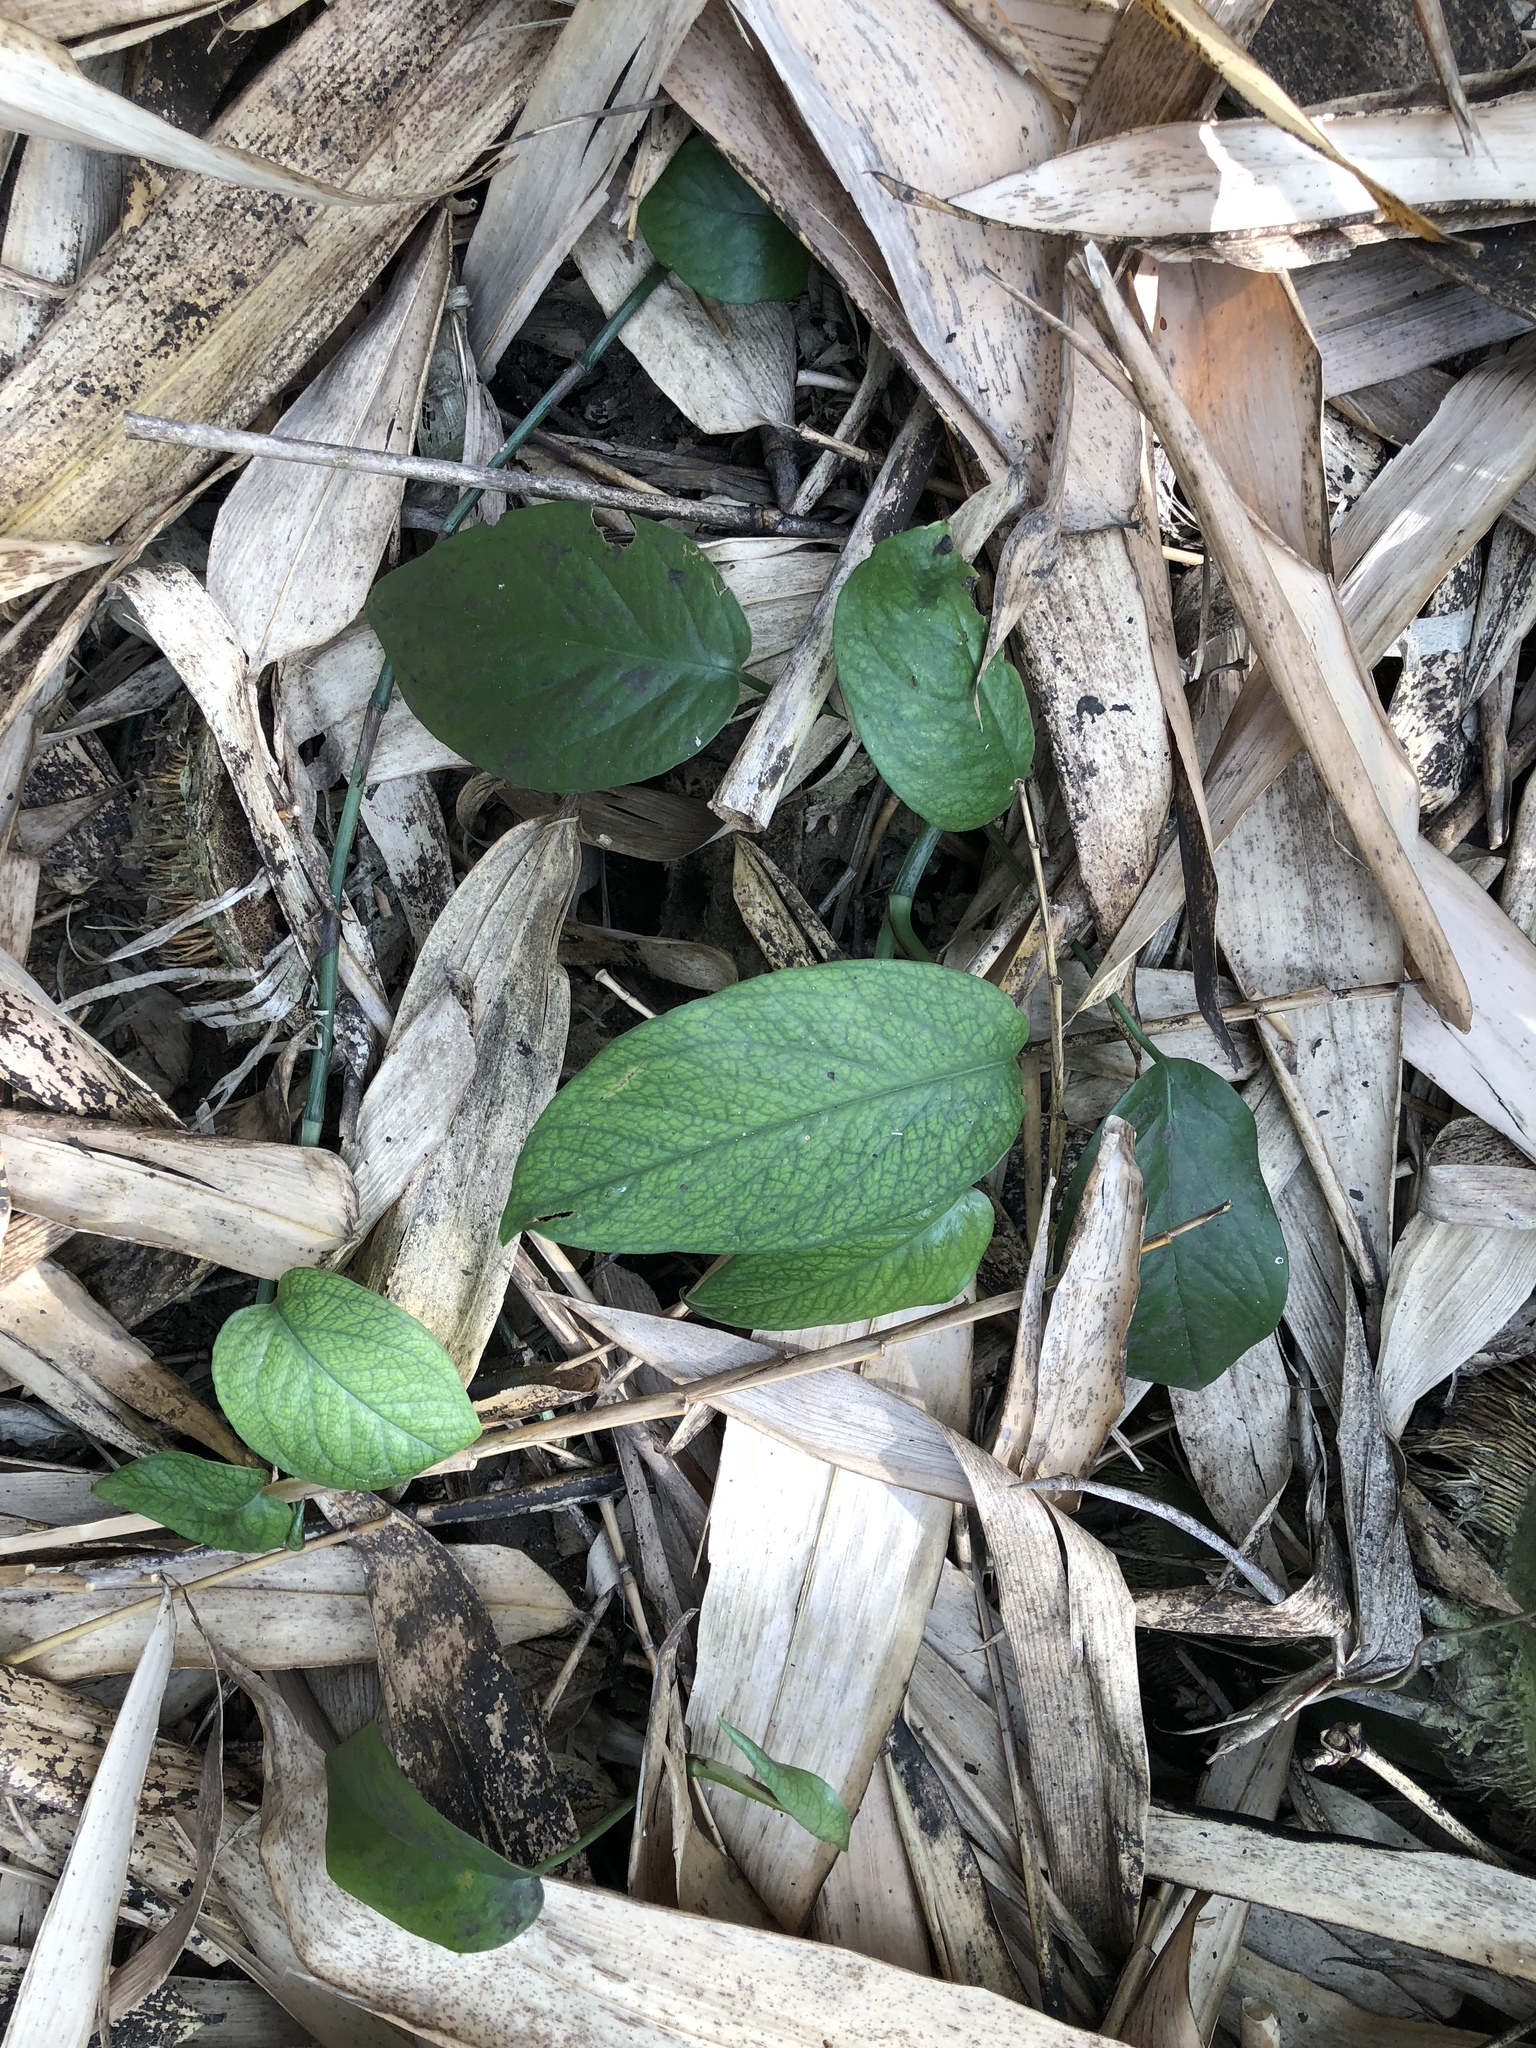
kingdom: Plantae
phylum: Tracheophyta
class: Liliopsida
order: Alismatales
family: Araceae
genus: Epipremnum
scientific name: Epipremnum pinnatum
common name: Centipede tongavine
